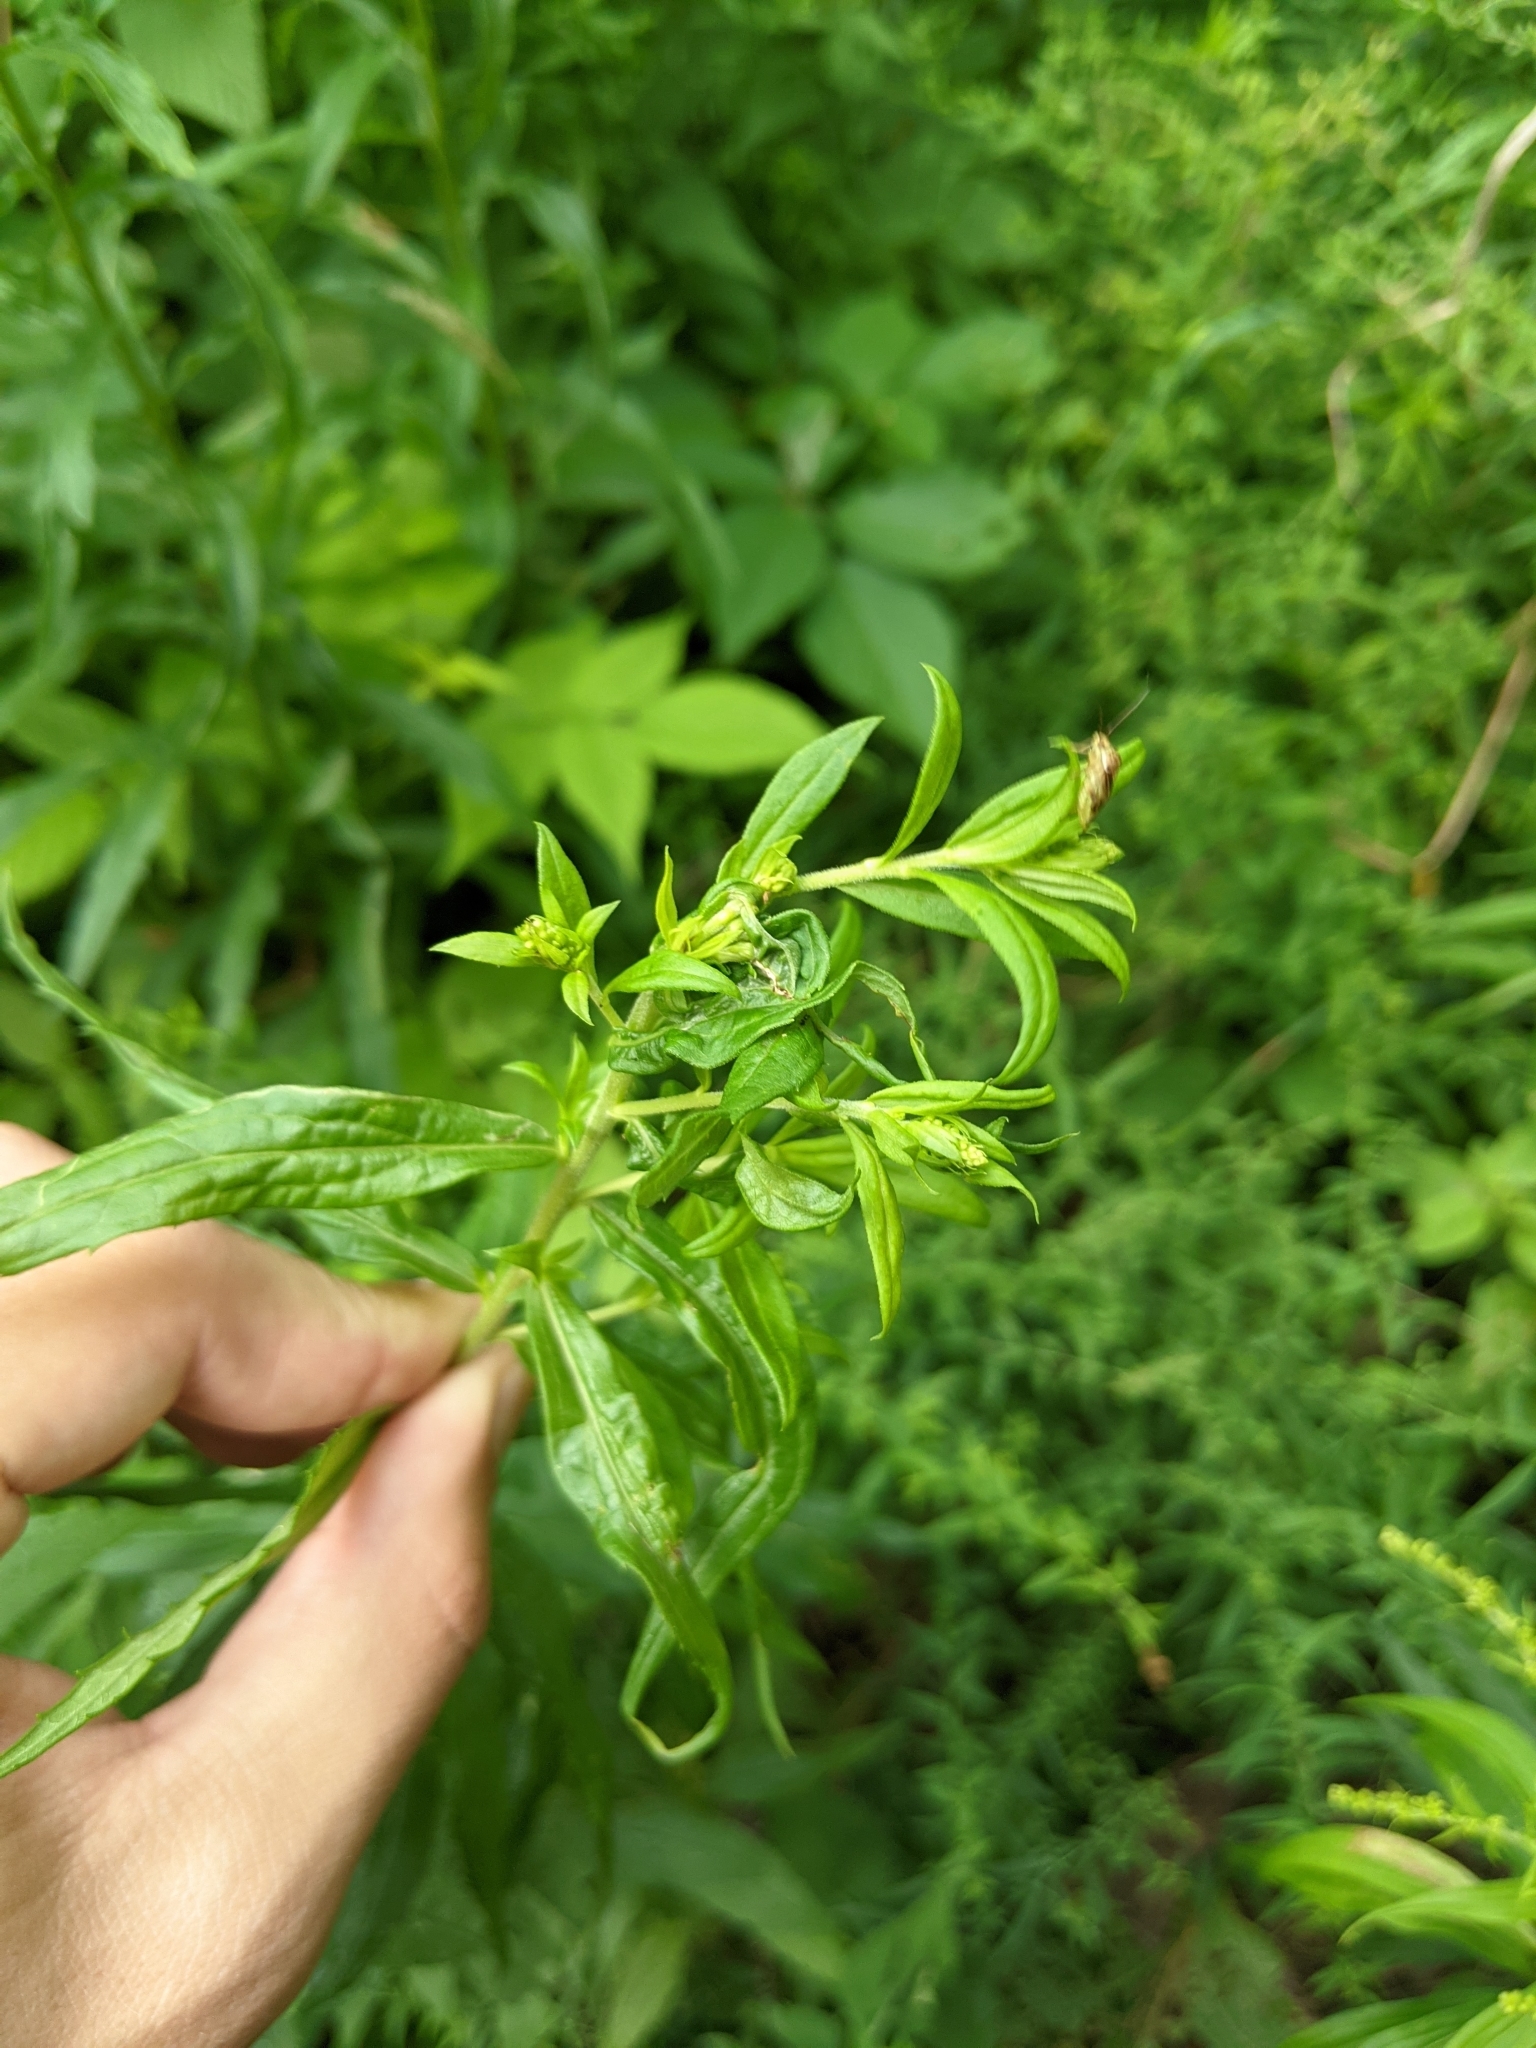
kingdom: Animalia
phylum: Arthropoda
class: Insecta
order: Diptera
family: Cecidomyiidae
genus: Asteromyia
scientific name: Asteromyia carbonifera
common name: Carbonifera goldenrod gall midge
